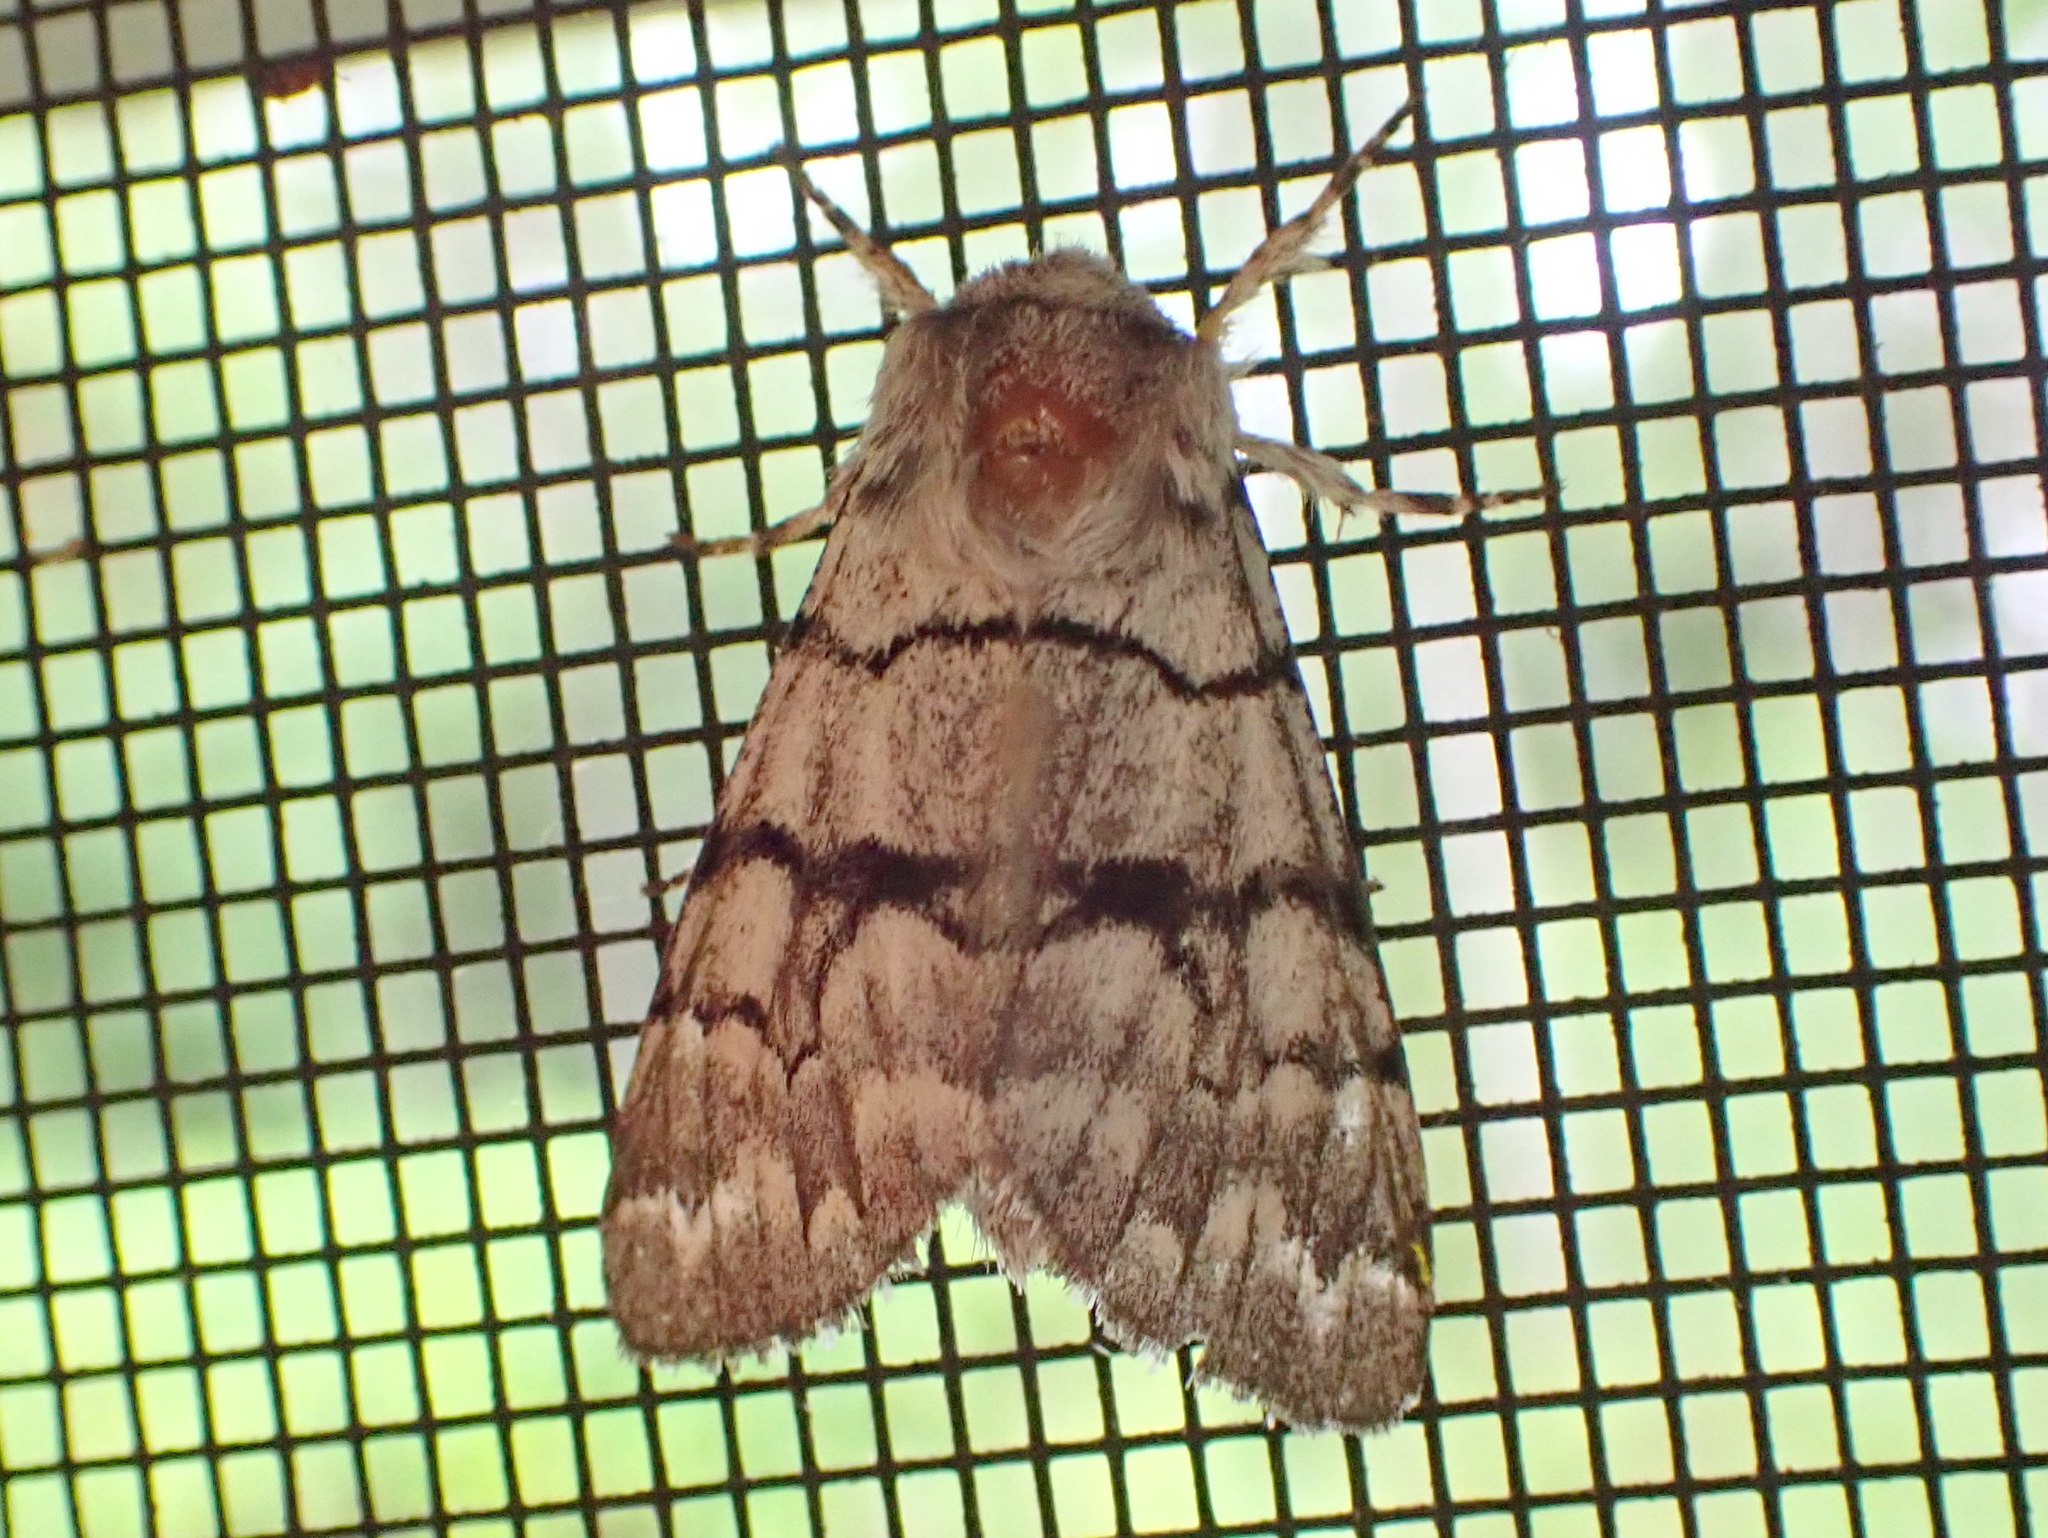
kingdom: Animalia
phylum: Arthropoda
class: Insecta
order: Lepidoptera
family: Noctuidae
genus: Panthea
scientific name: Panthea furcilla
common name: Eastern panthea moth
